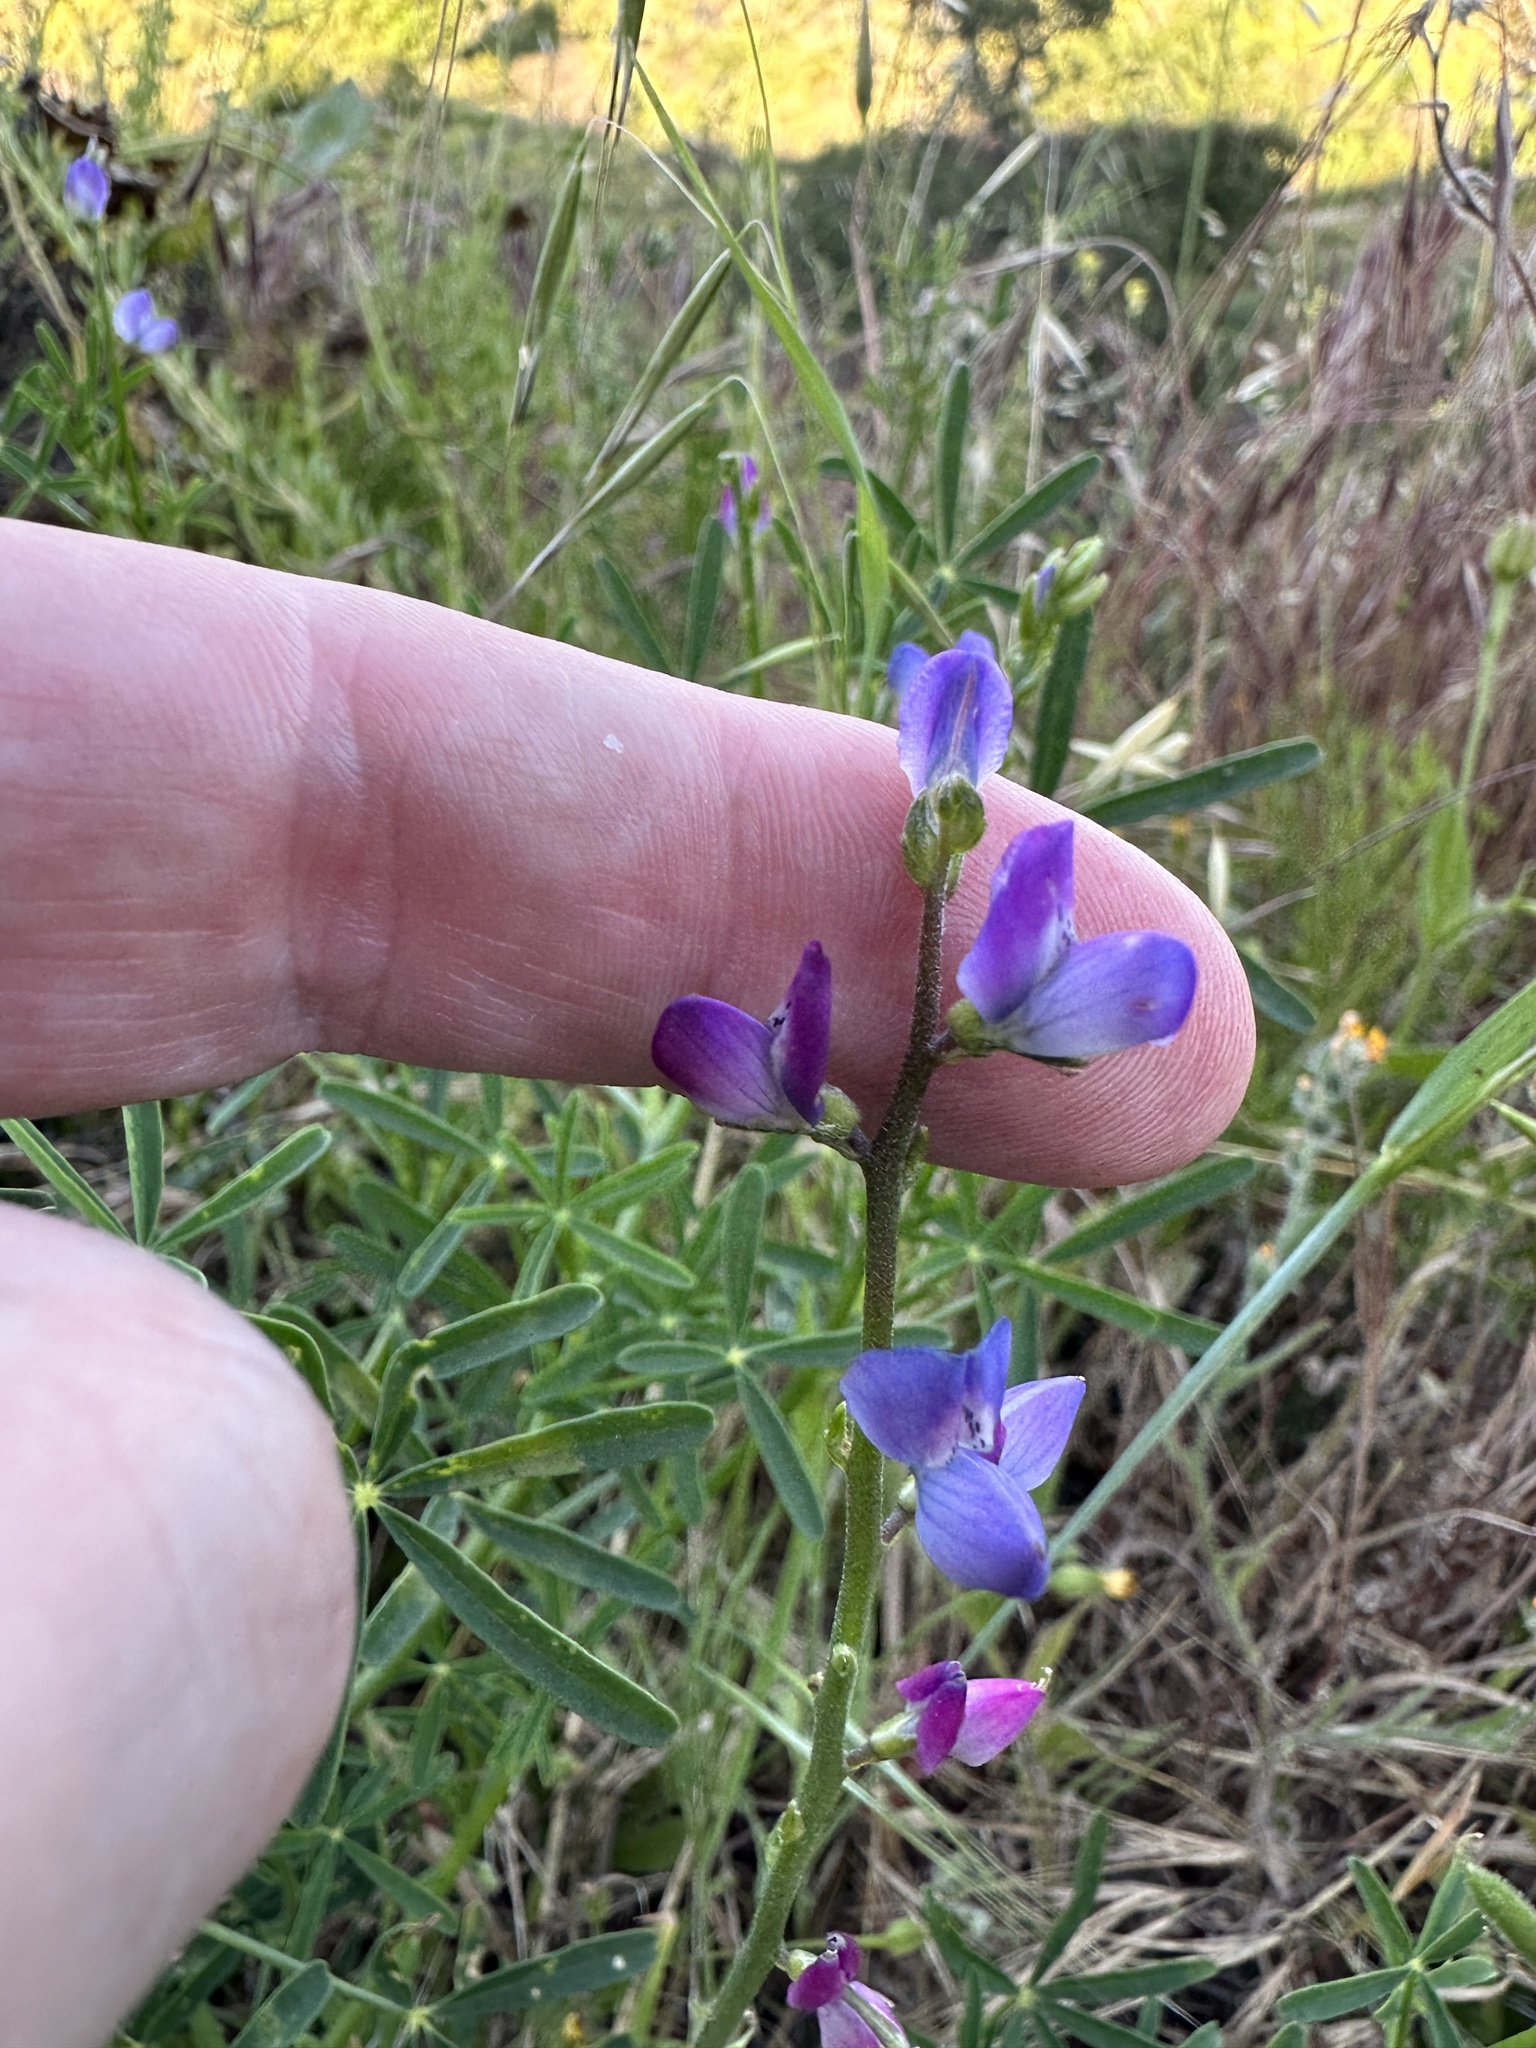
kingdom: Plantae
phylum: Tracheophyta
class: Magnoliopsida
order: Fabales
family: Fabaceae
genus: Lupinus
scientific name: Lupinus truncatus
